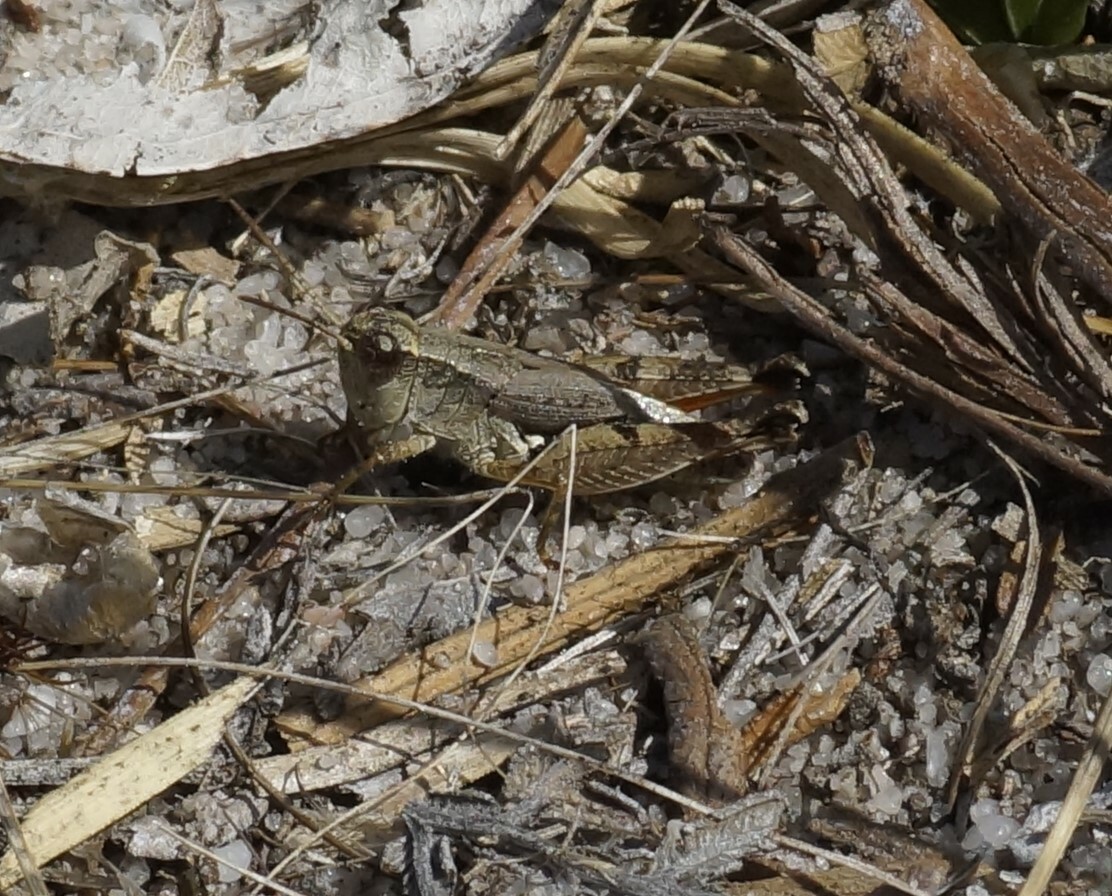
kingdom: Animalia
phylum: Arthropoda
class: Insecta
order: Orthoptera
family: Acrididae
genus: Phaulacridium
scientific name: Phaulacridium vittatum
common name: Wingless grasshopper
